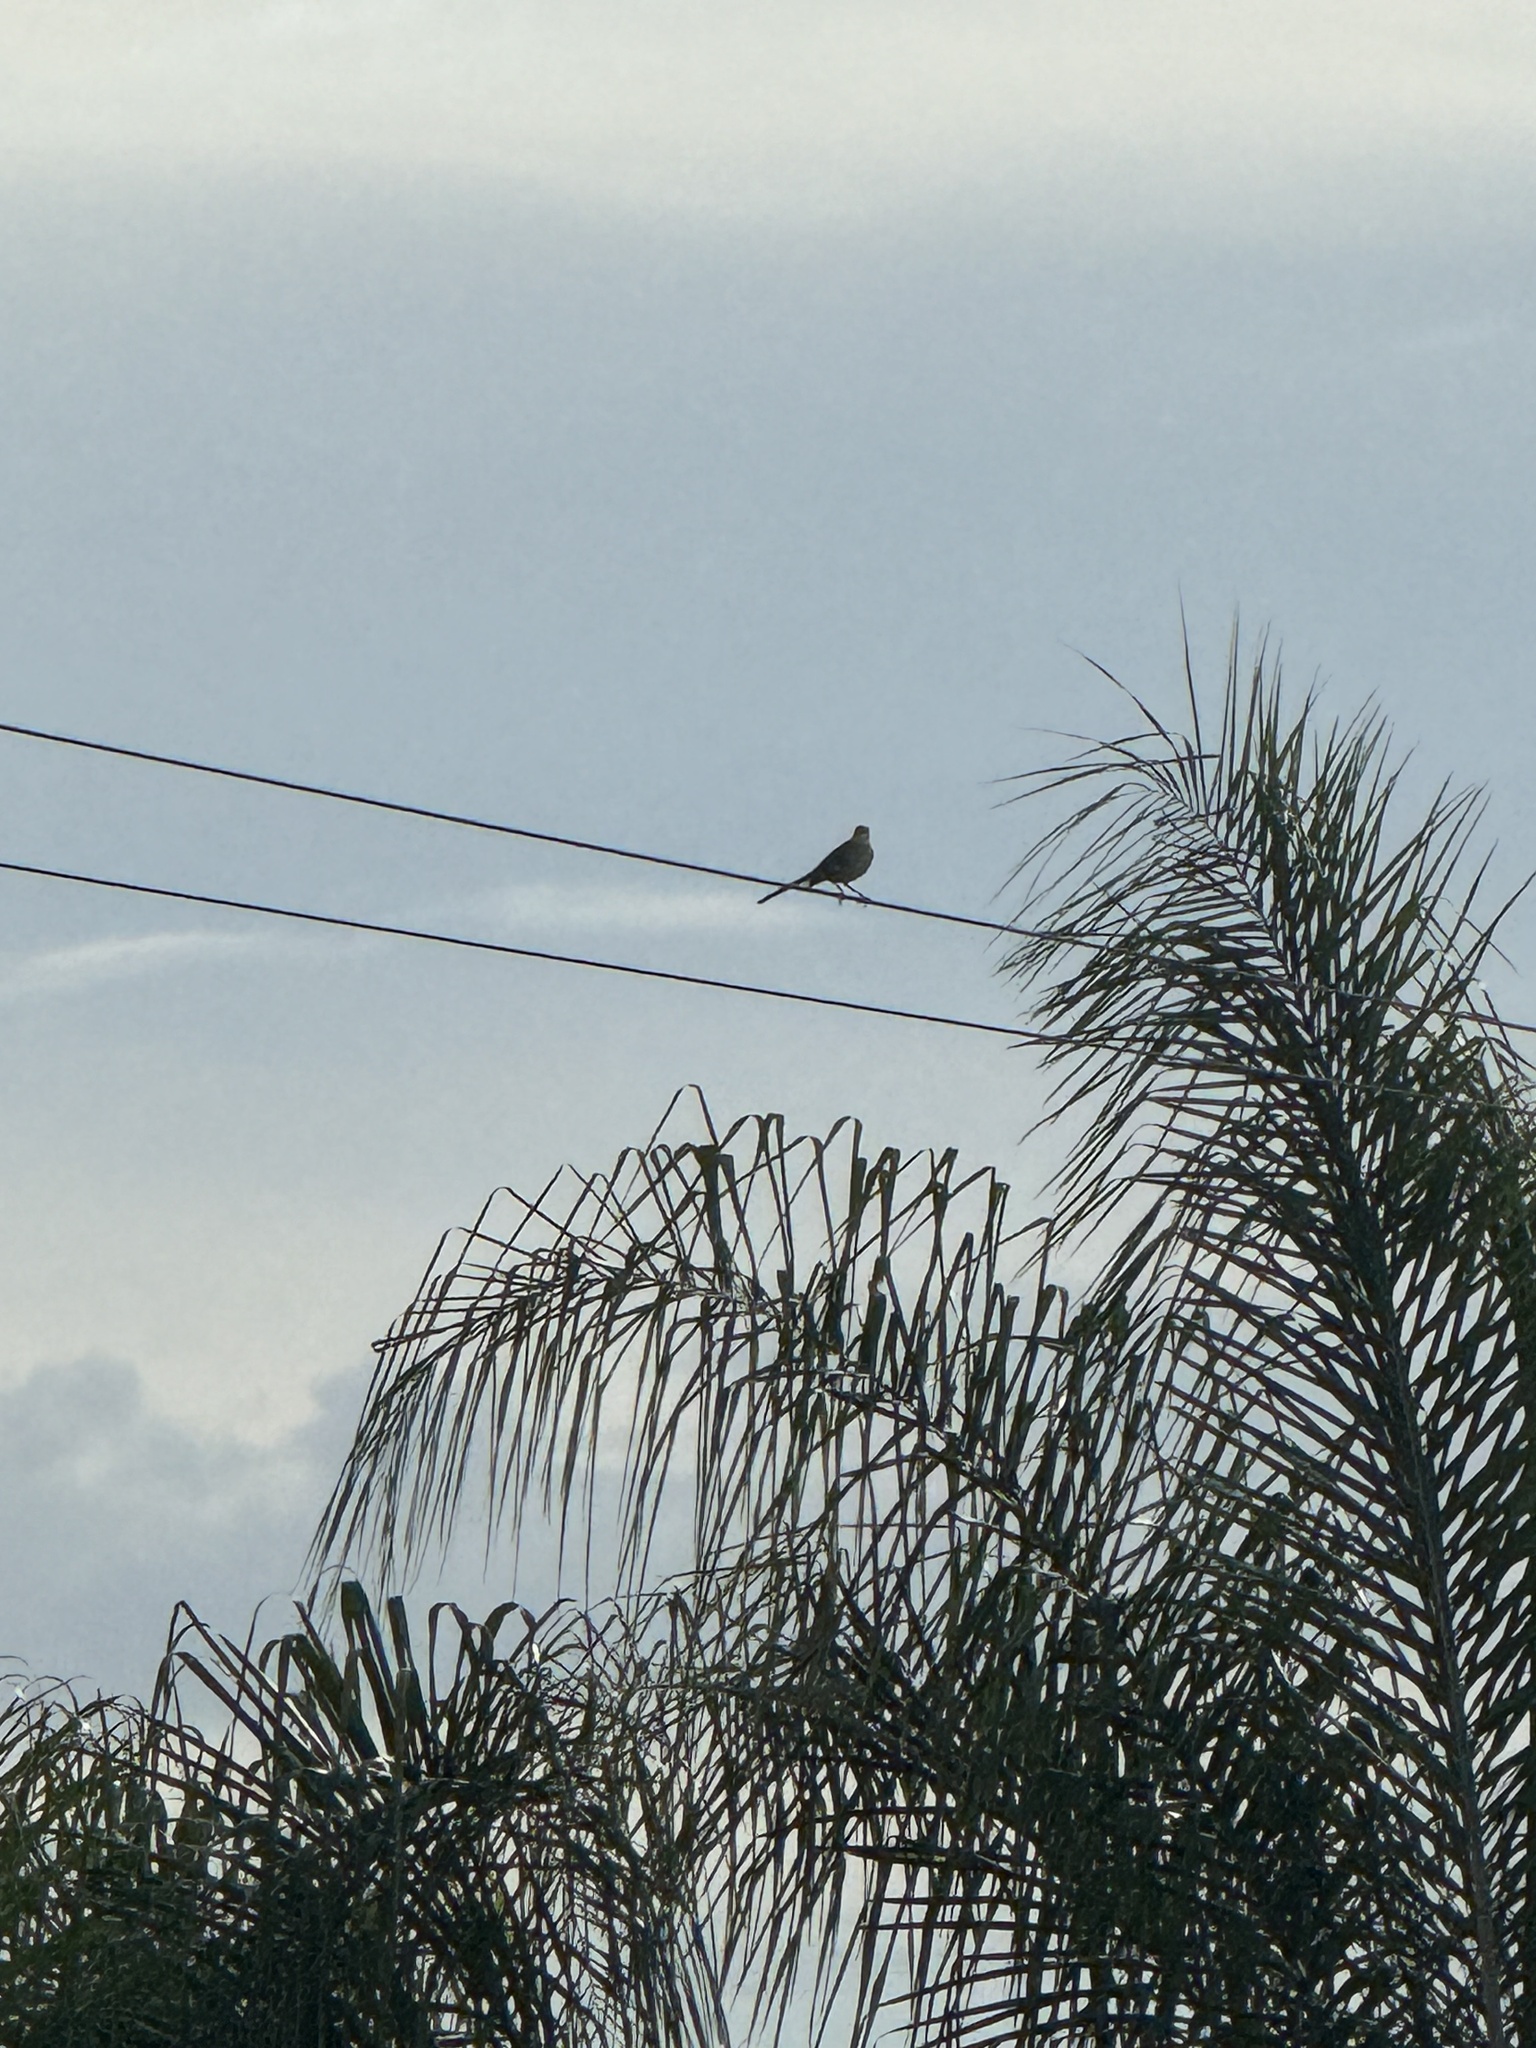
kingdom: Animalia
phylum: Chordata
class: Aves
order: Passeriformes
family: Mimidae
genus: Mimus
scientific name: Mimus polyglottos
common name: Northern mockingbird
